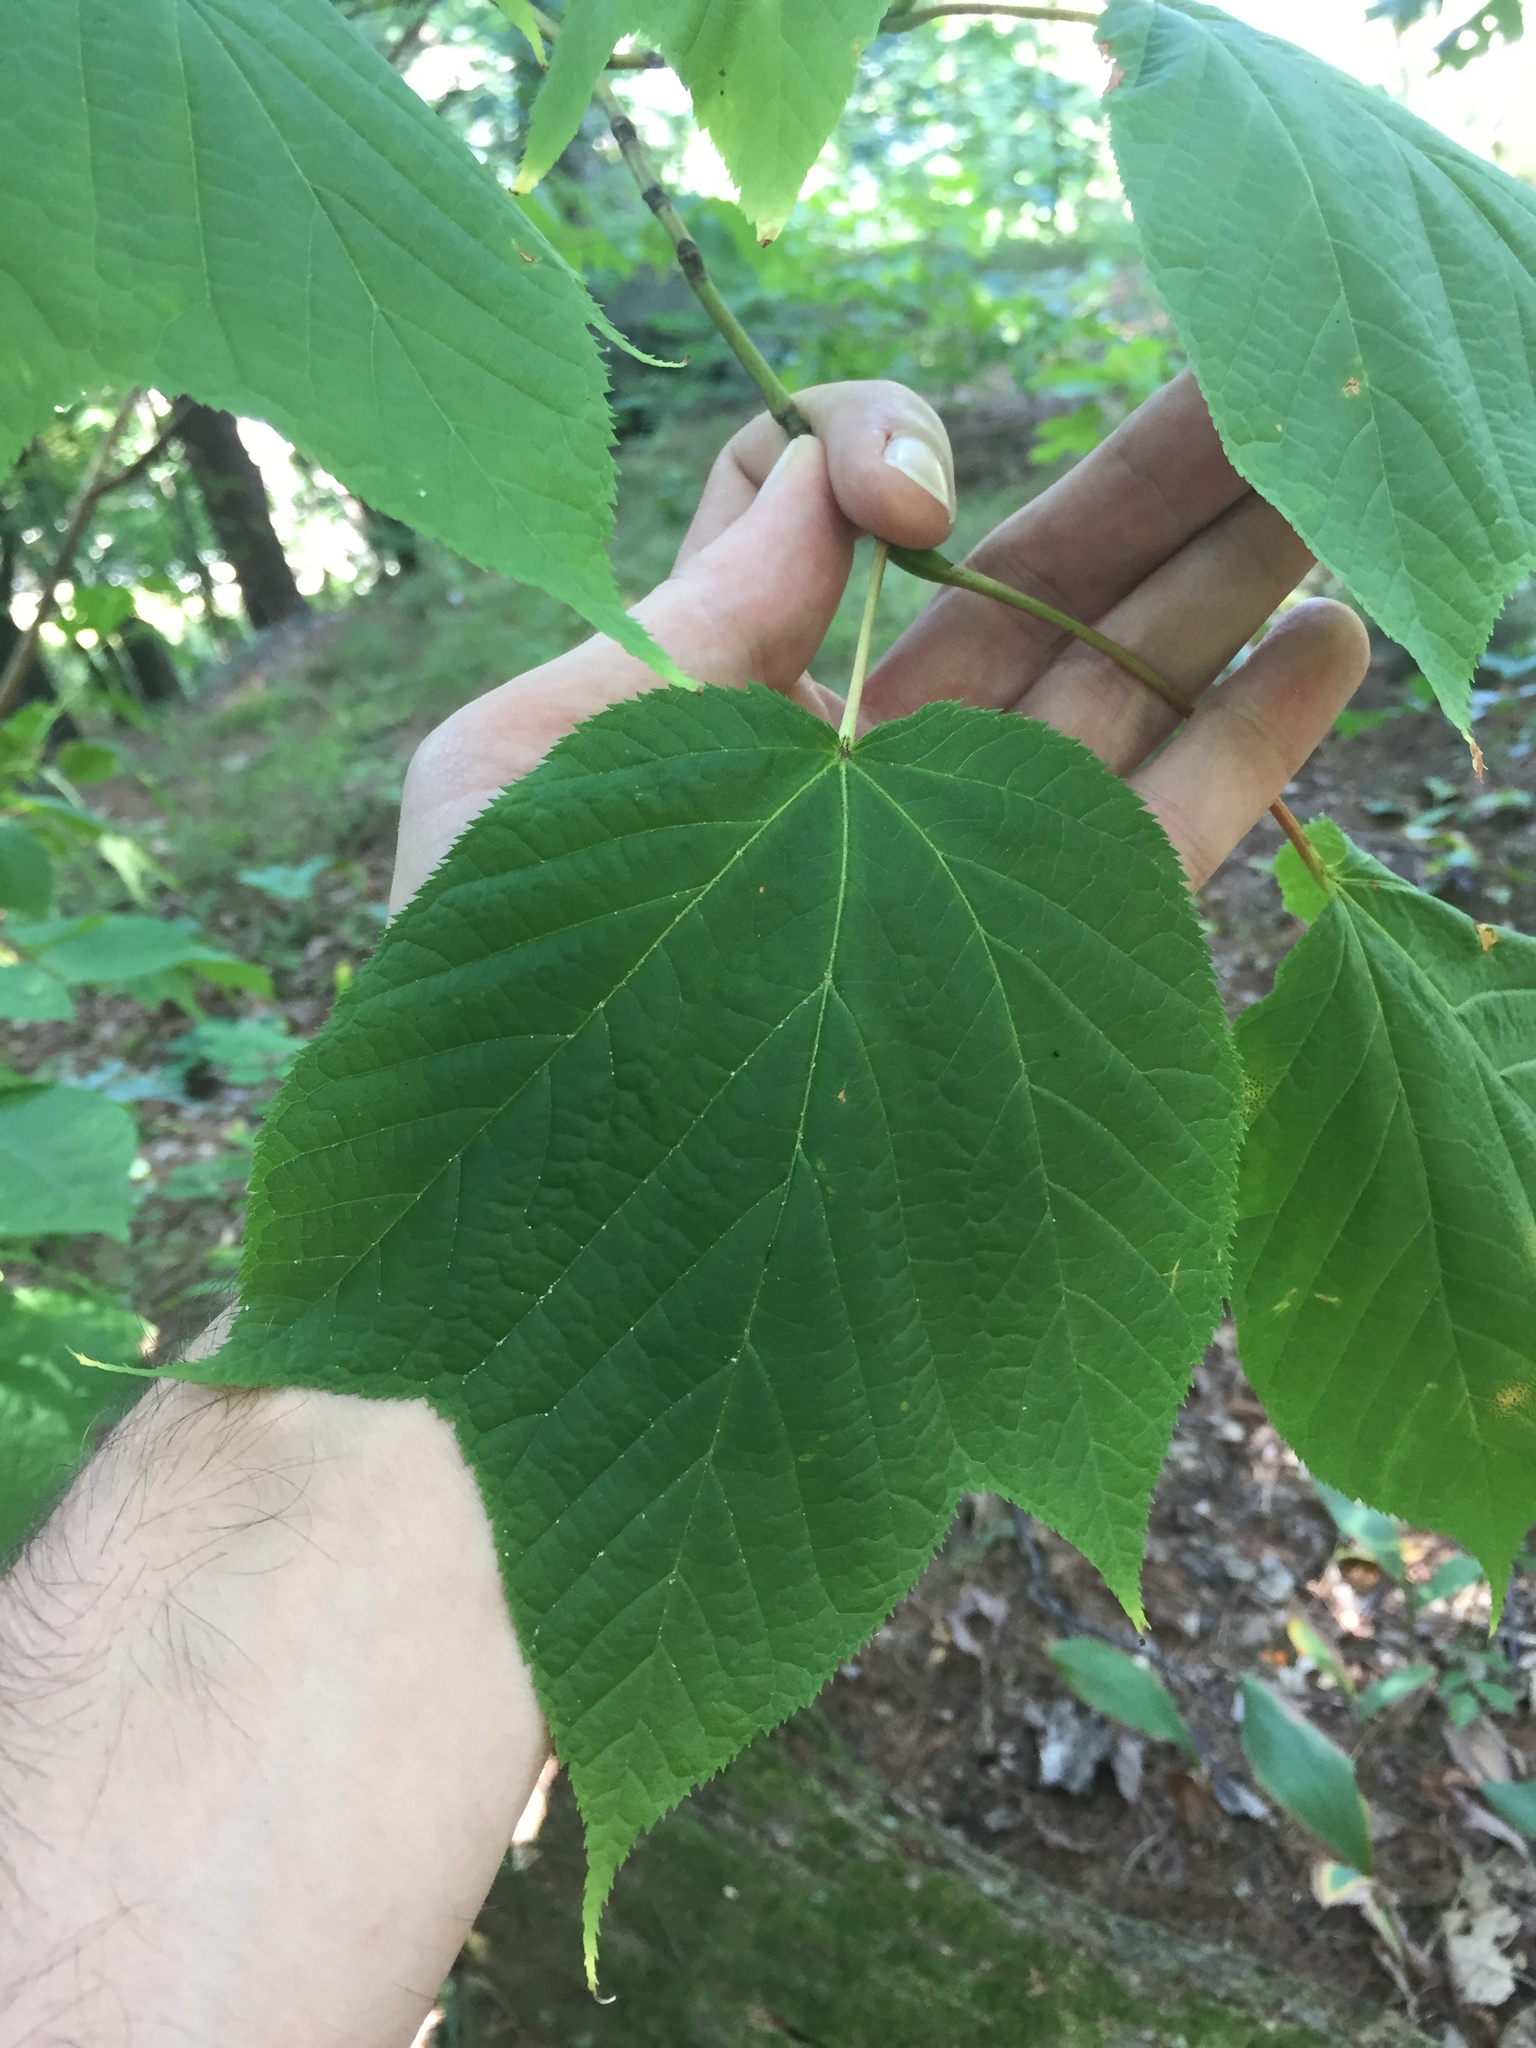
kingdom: Plantae
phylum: Tracheophyta
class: Magnoliopsida
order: Sapindales
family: Sapindaceae
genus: Acer
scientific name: Acer pensylvanicum
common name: Moosewood
